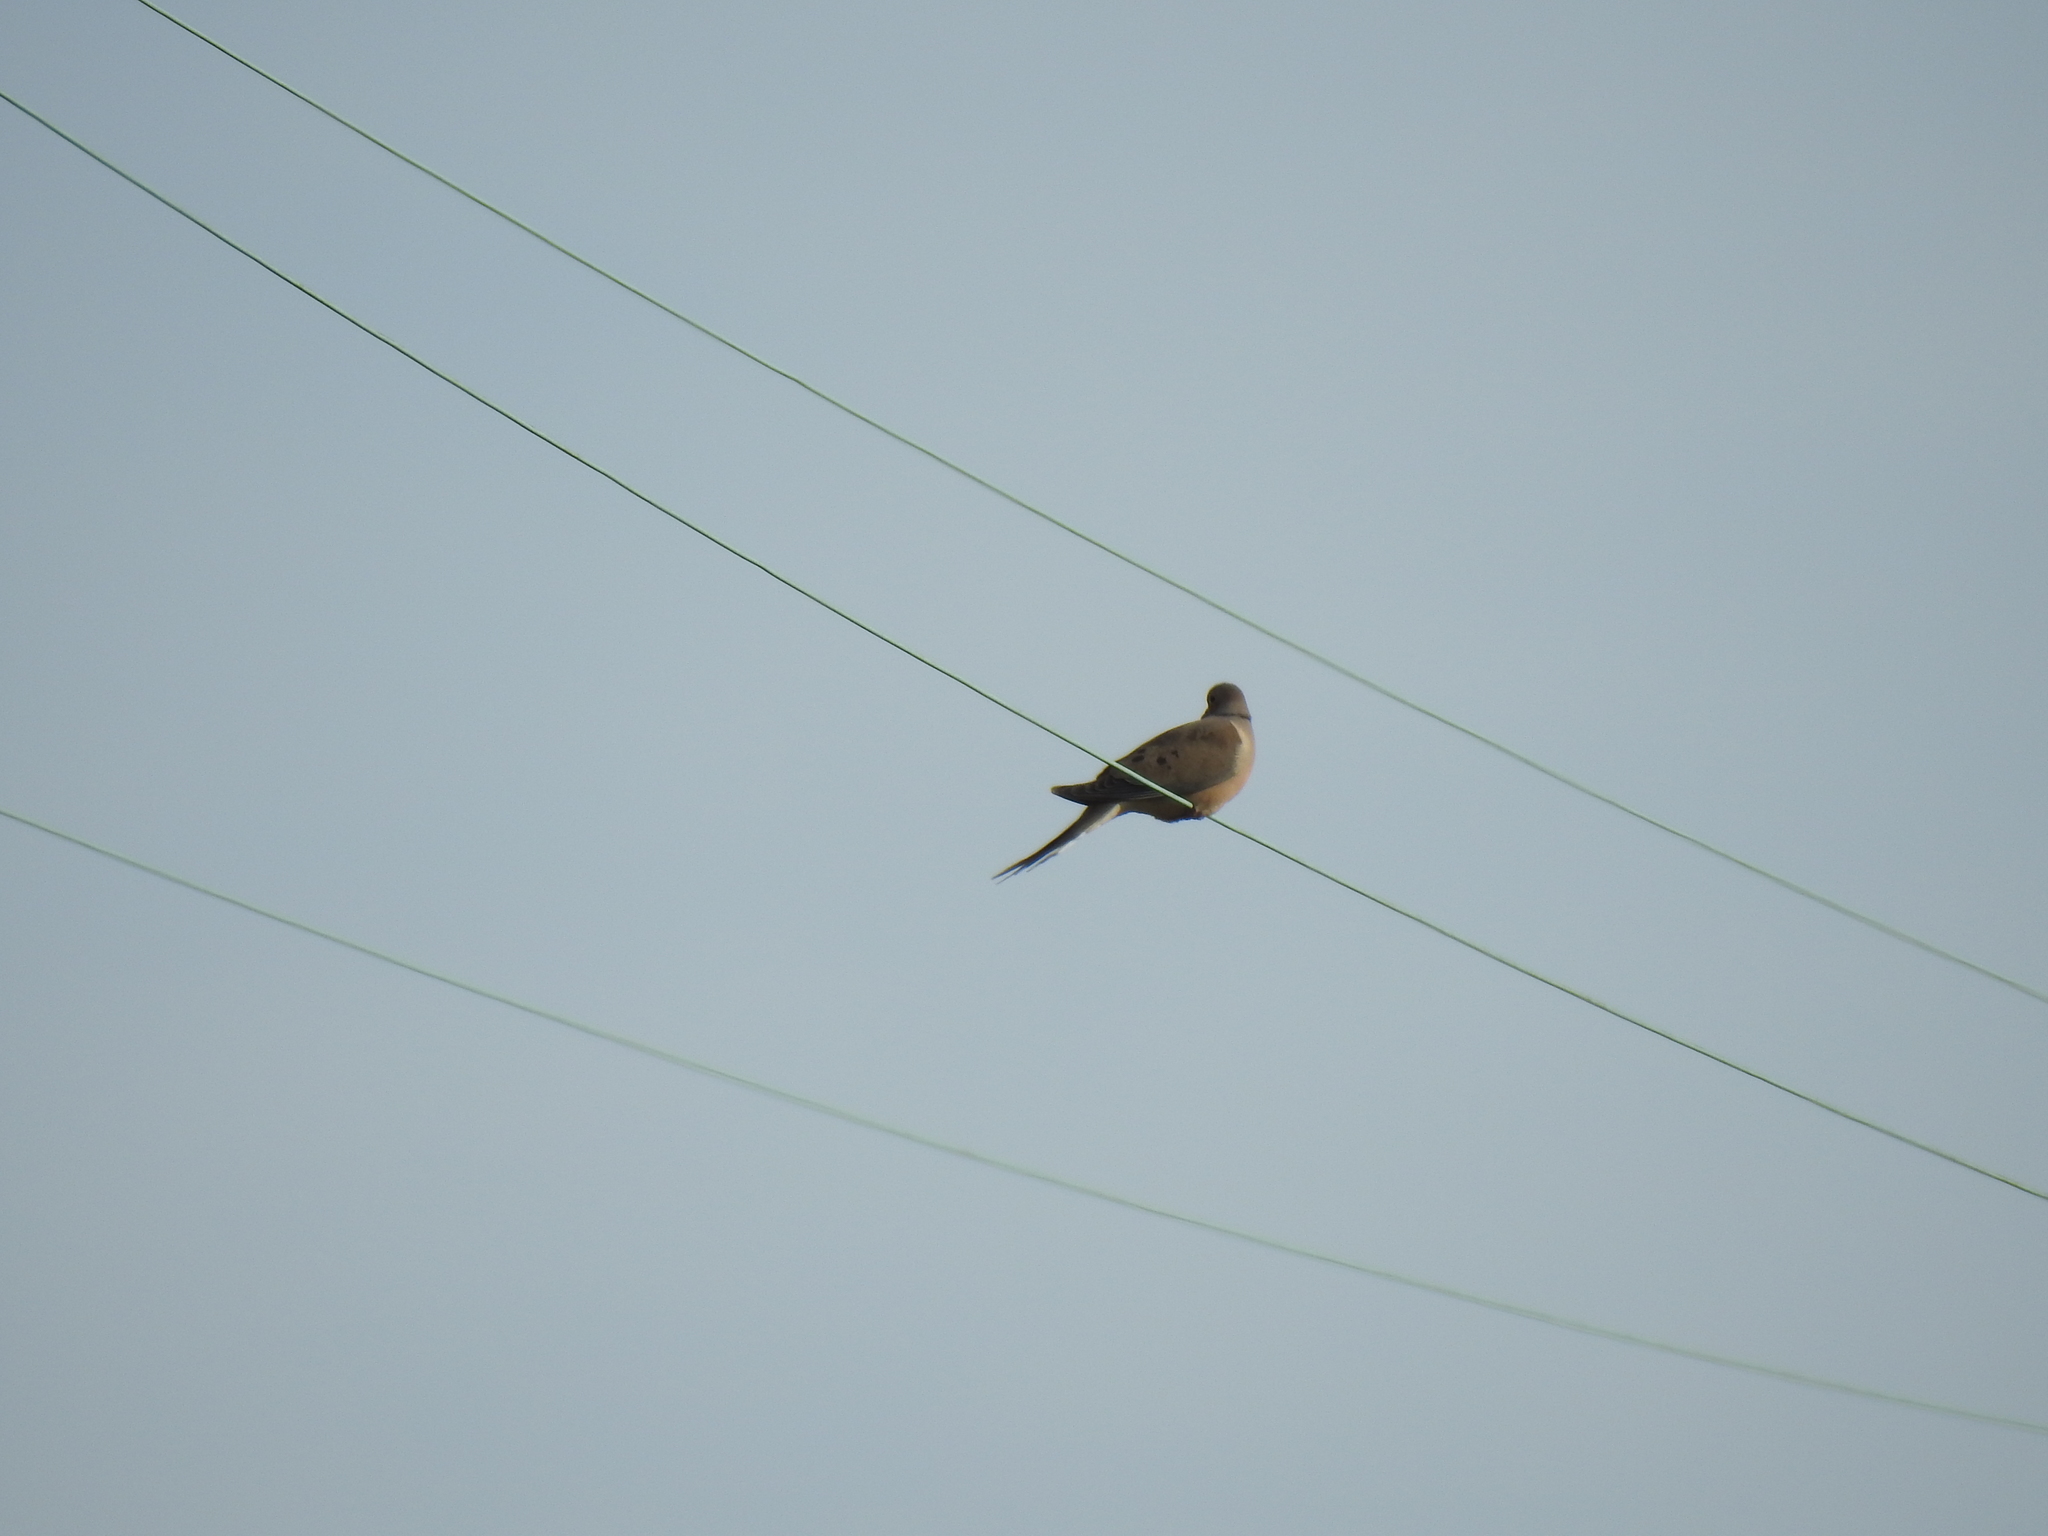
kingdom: Animalia
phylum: Chordata
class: Aves
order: Columbiformes
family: Columbidae
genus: Zenaida
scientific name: Zenaida macroura
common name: Mourning dove
